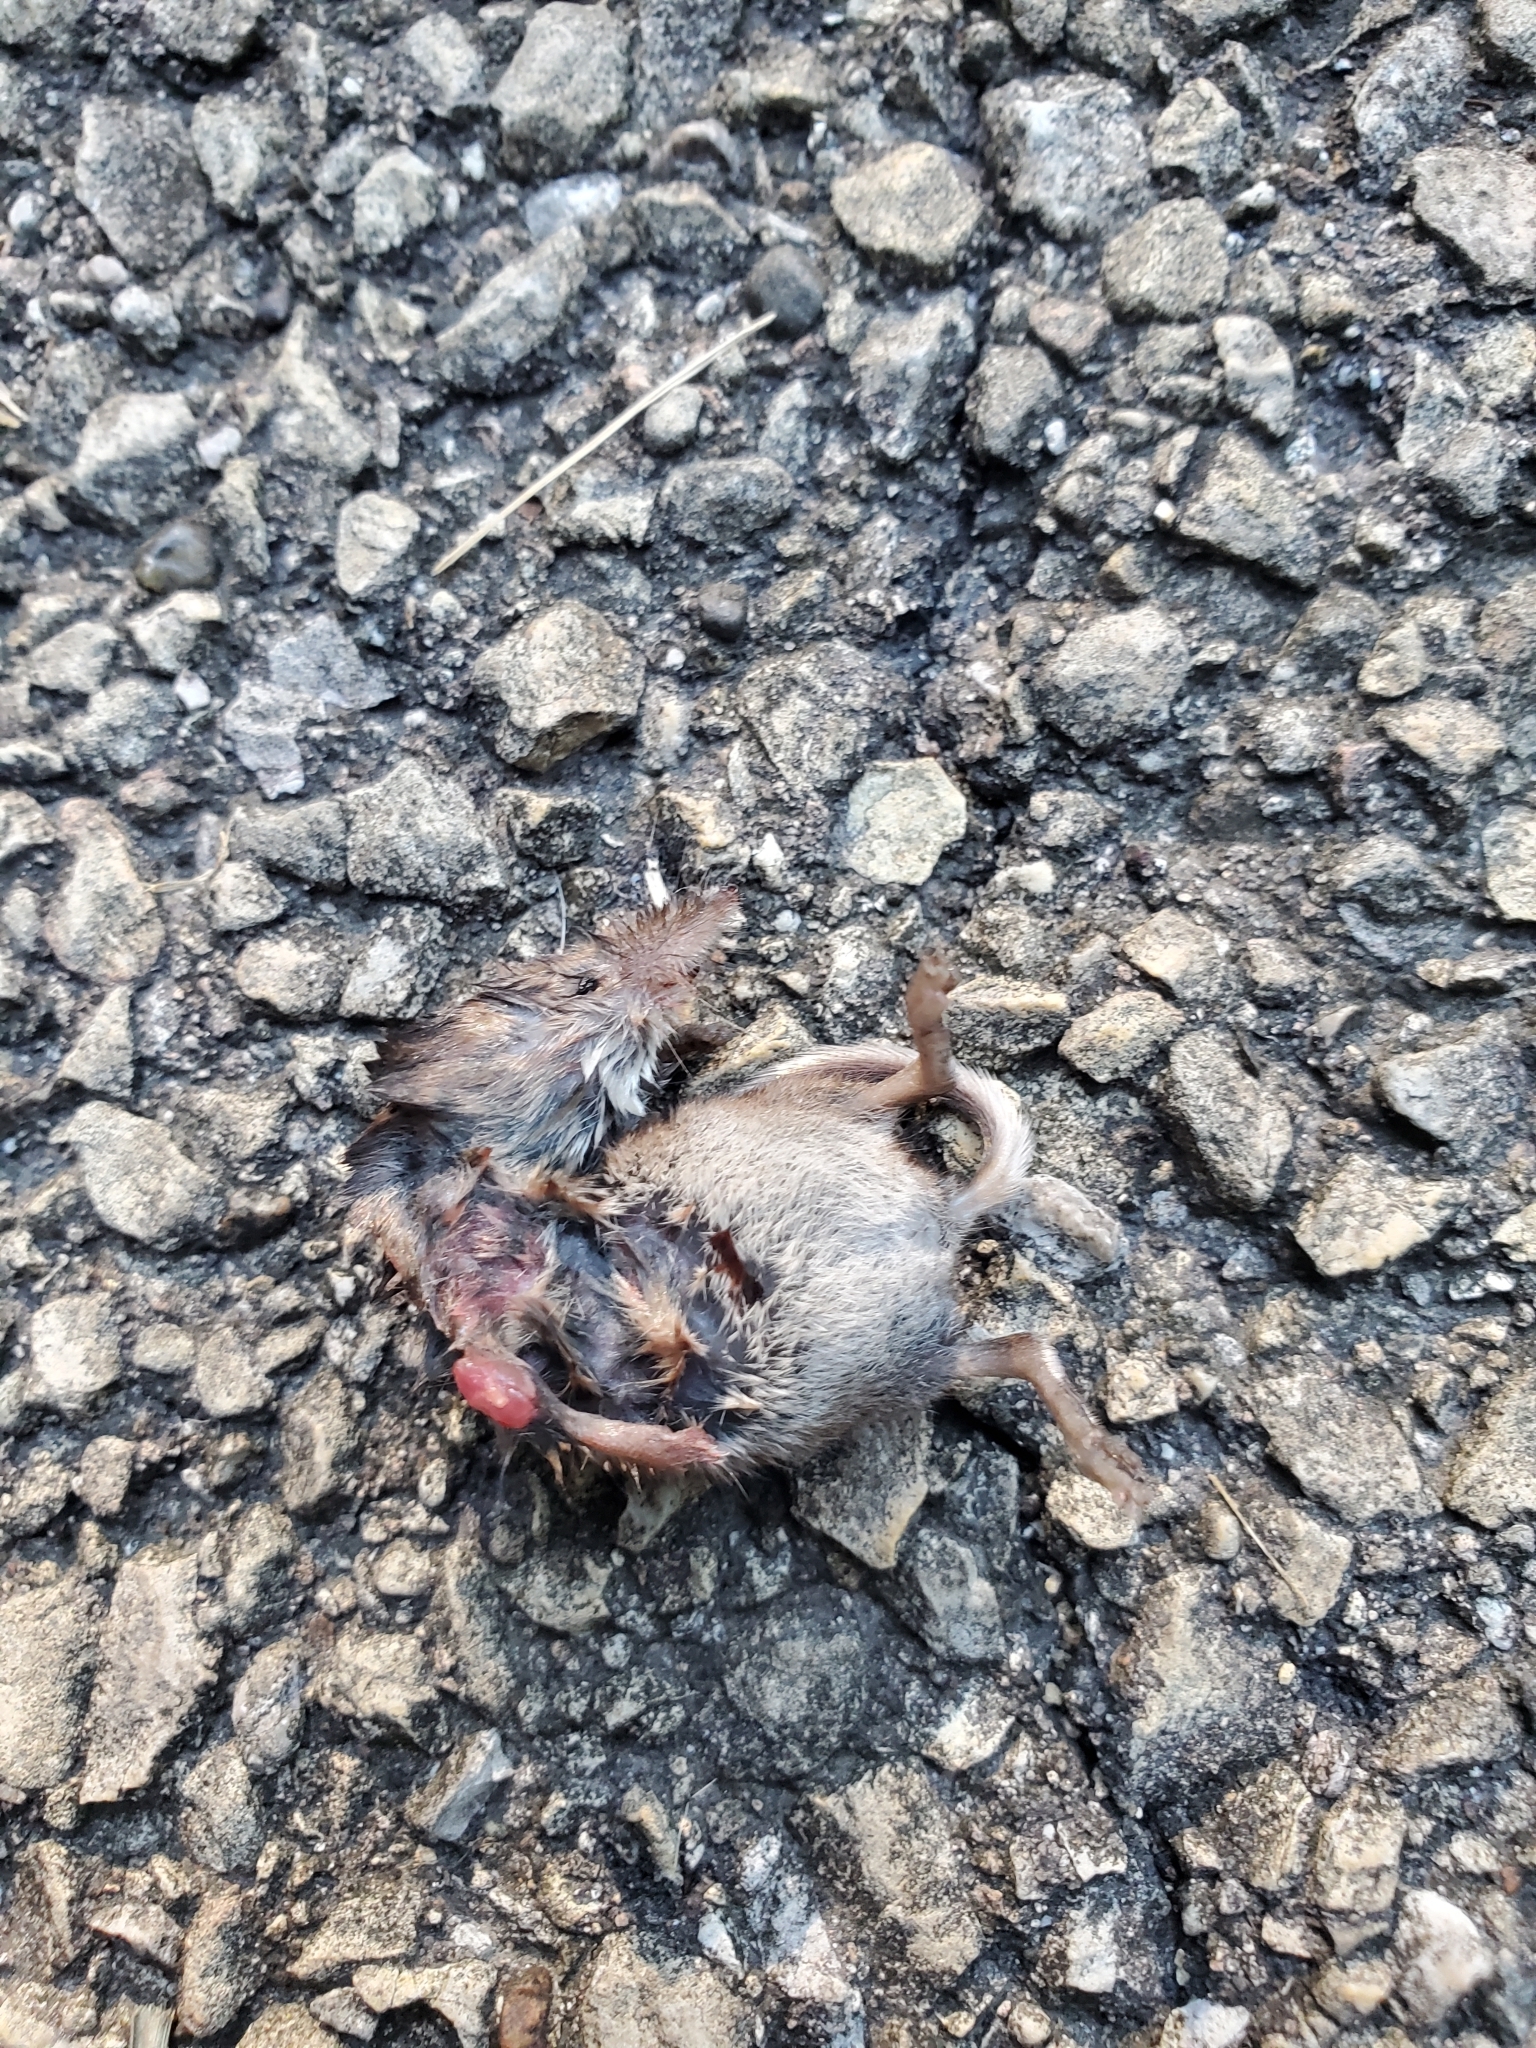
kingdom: Animalia
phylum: Chordata
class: Mammalia
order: Soricomorpha
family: Soricidae
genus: Sorex
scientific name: Sorex cinereus
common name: Cinereus shrew
